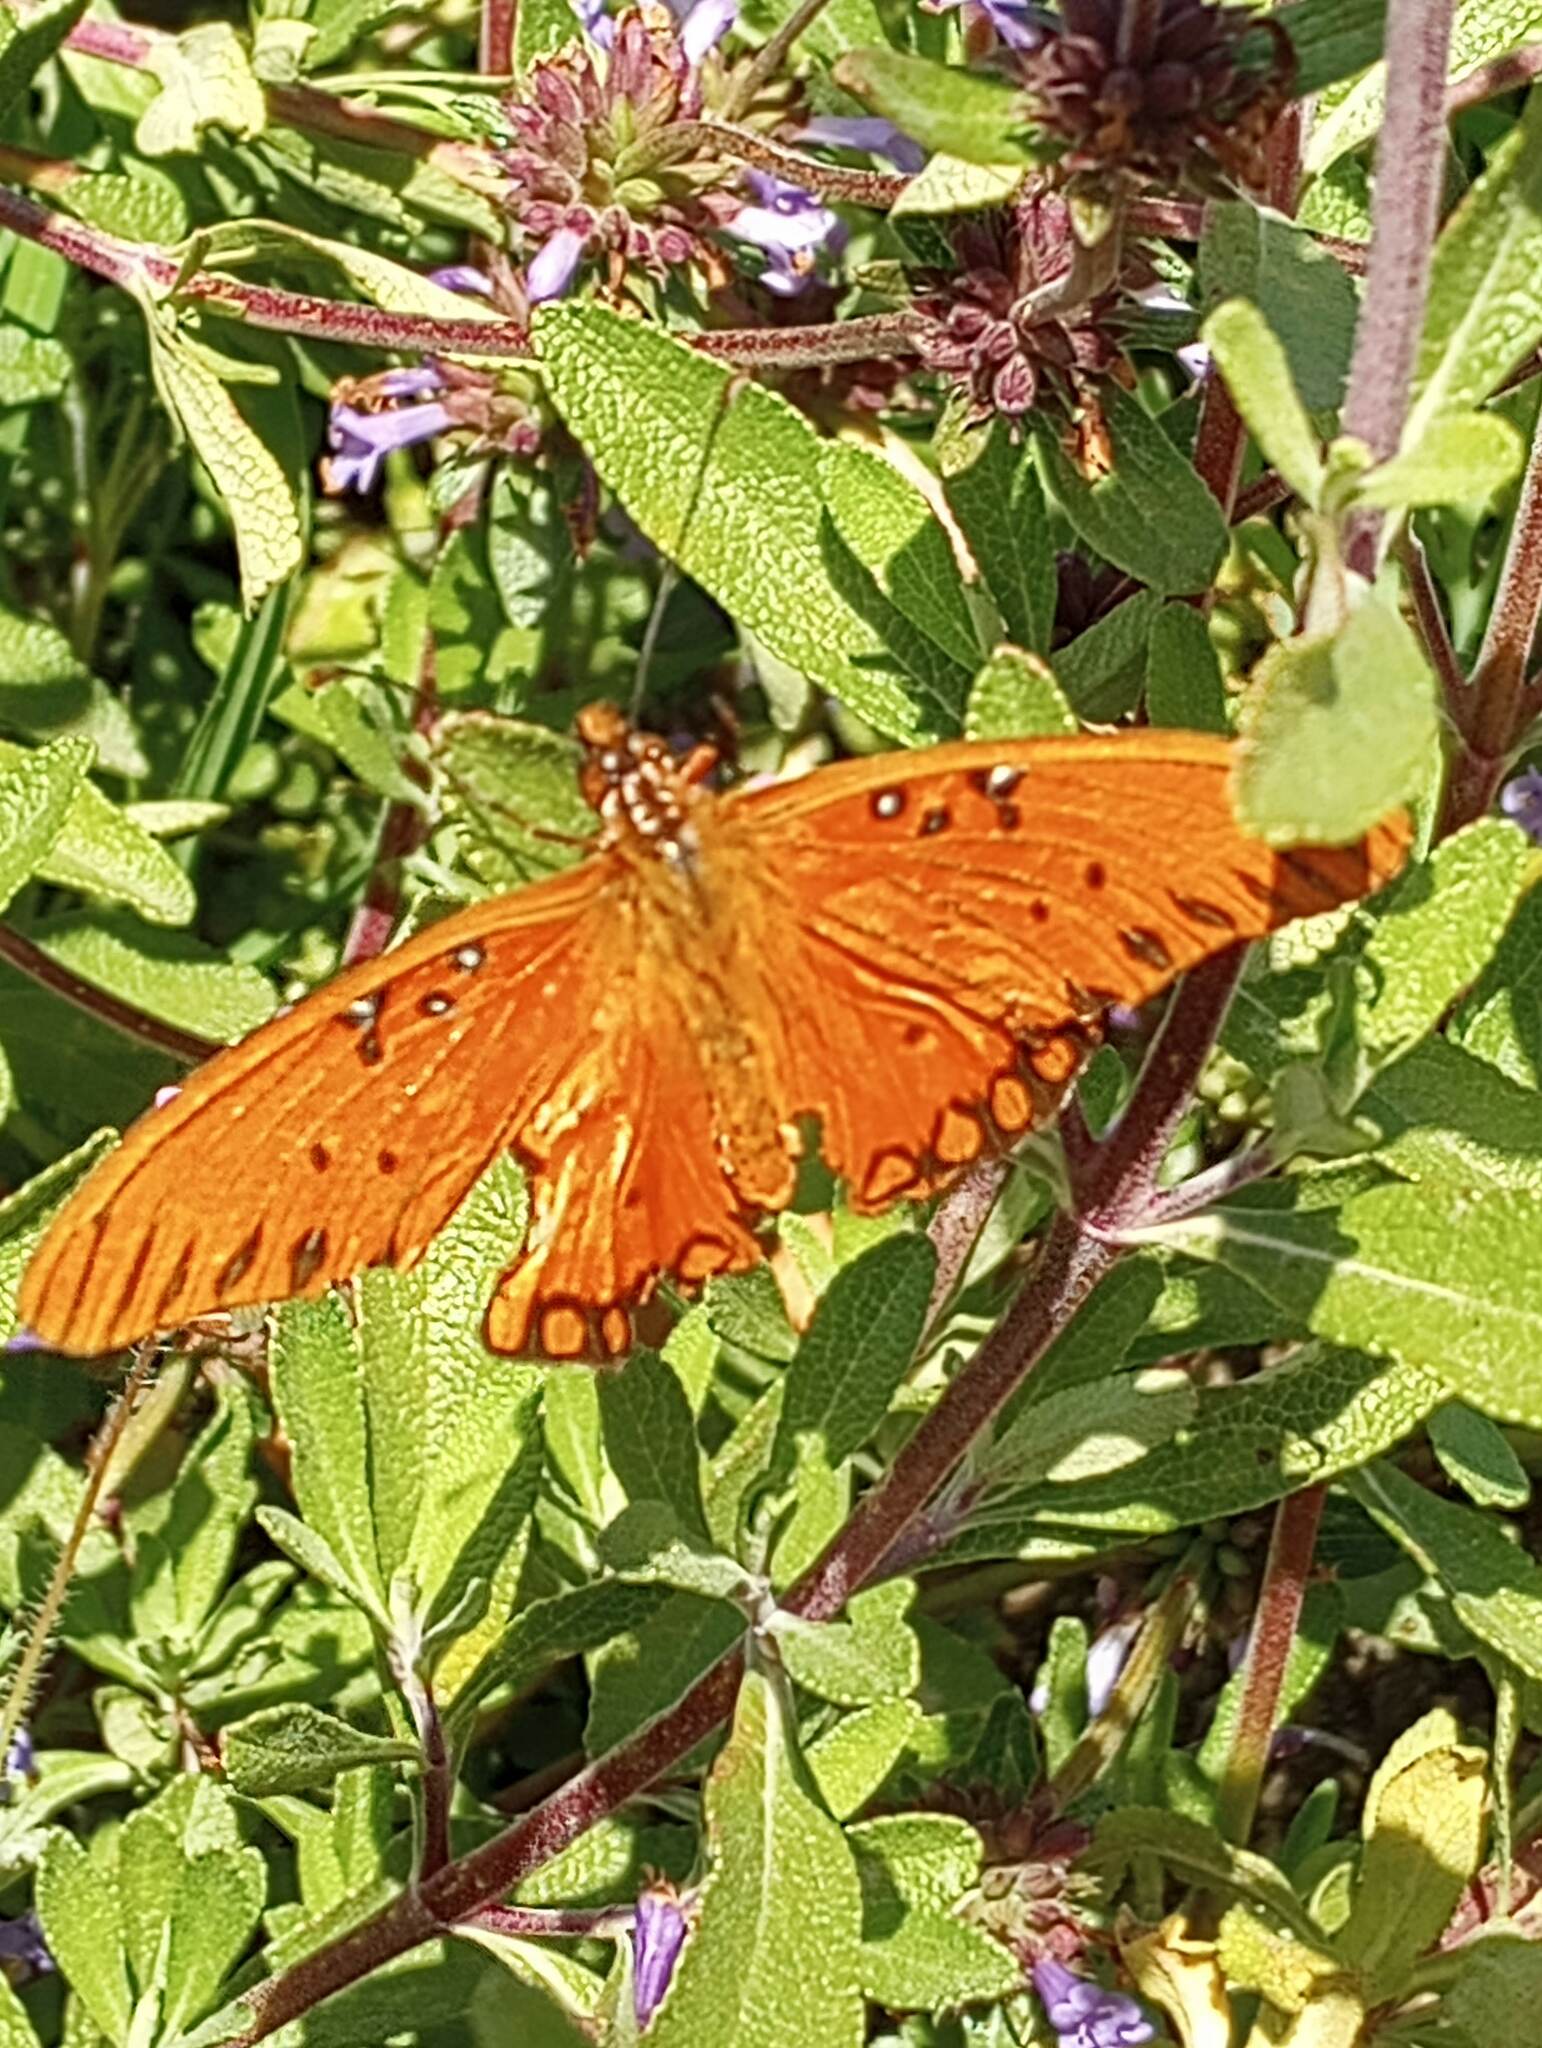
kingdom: Animalia
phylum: Arthropoda
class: Insecta
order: Lepidoptera
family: Nymphalidae
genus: Dione
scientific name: Dione vanillae
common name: Gulf fritillary
